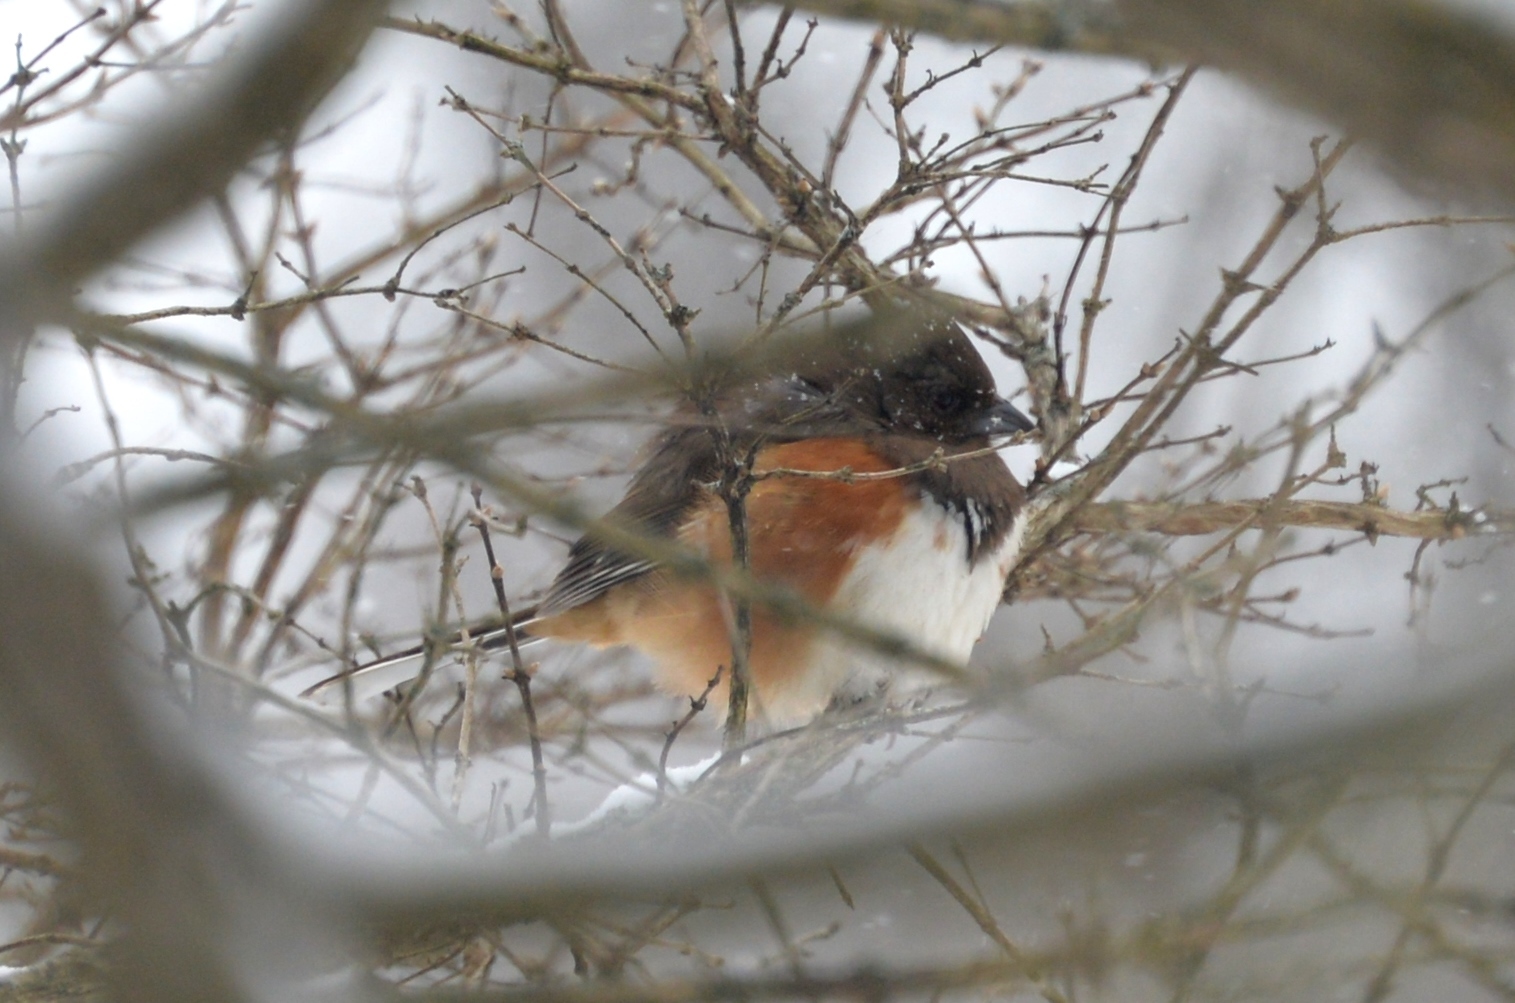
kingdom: Animalia
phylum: Chordata
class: Aves
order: Passeriformes
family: Passerellidae
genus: Pipilo
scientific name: Pipilo erythrophthalmus
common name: Eastern towhee
